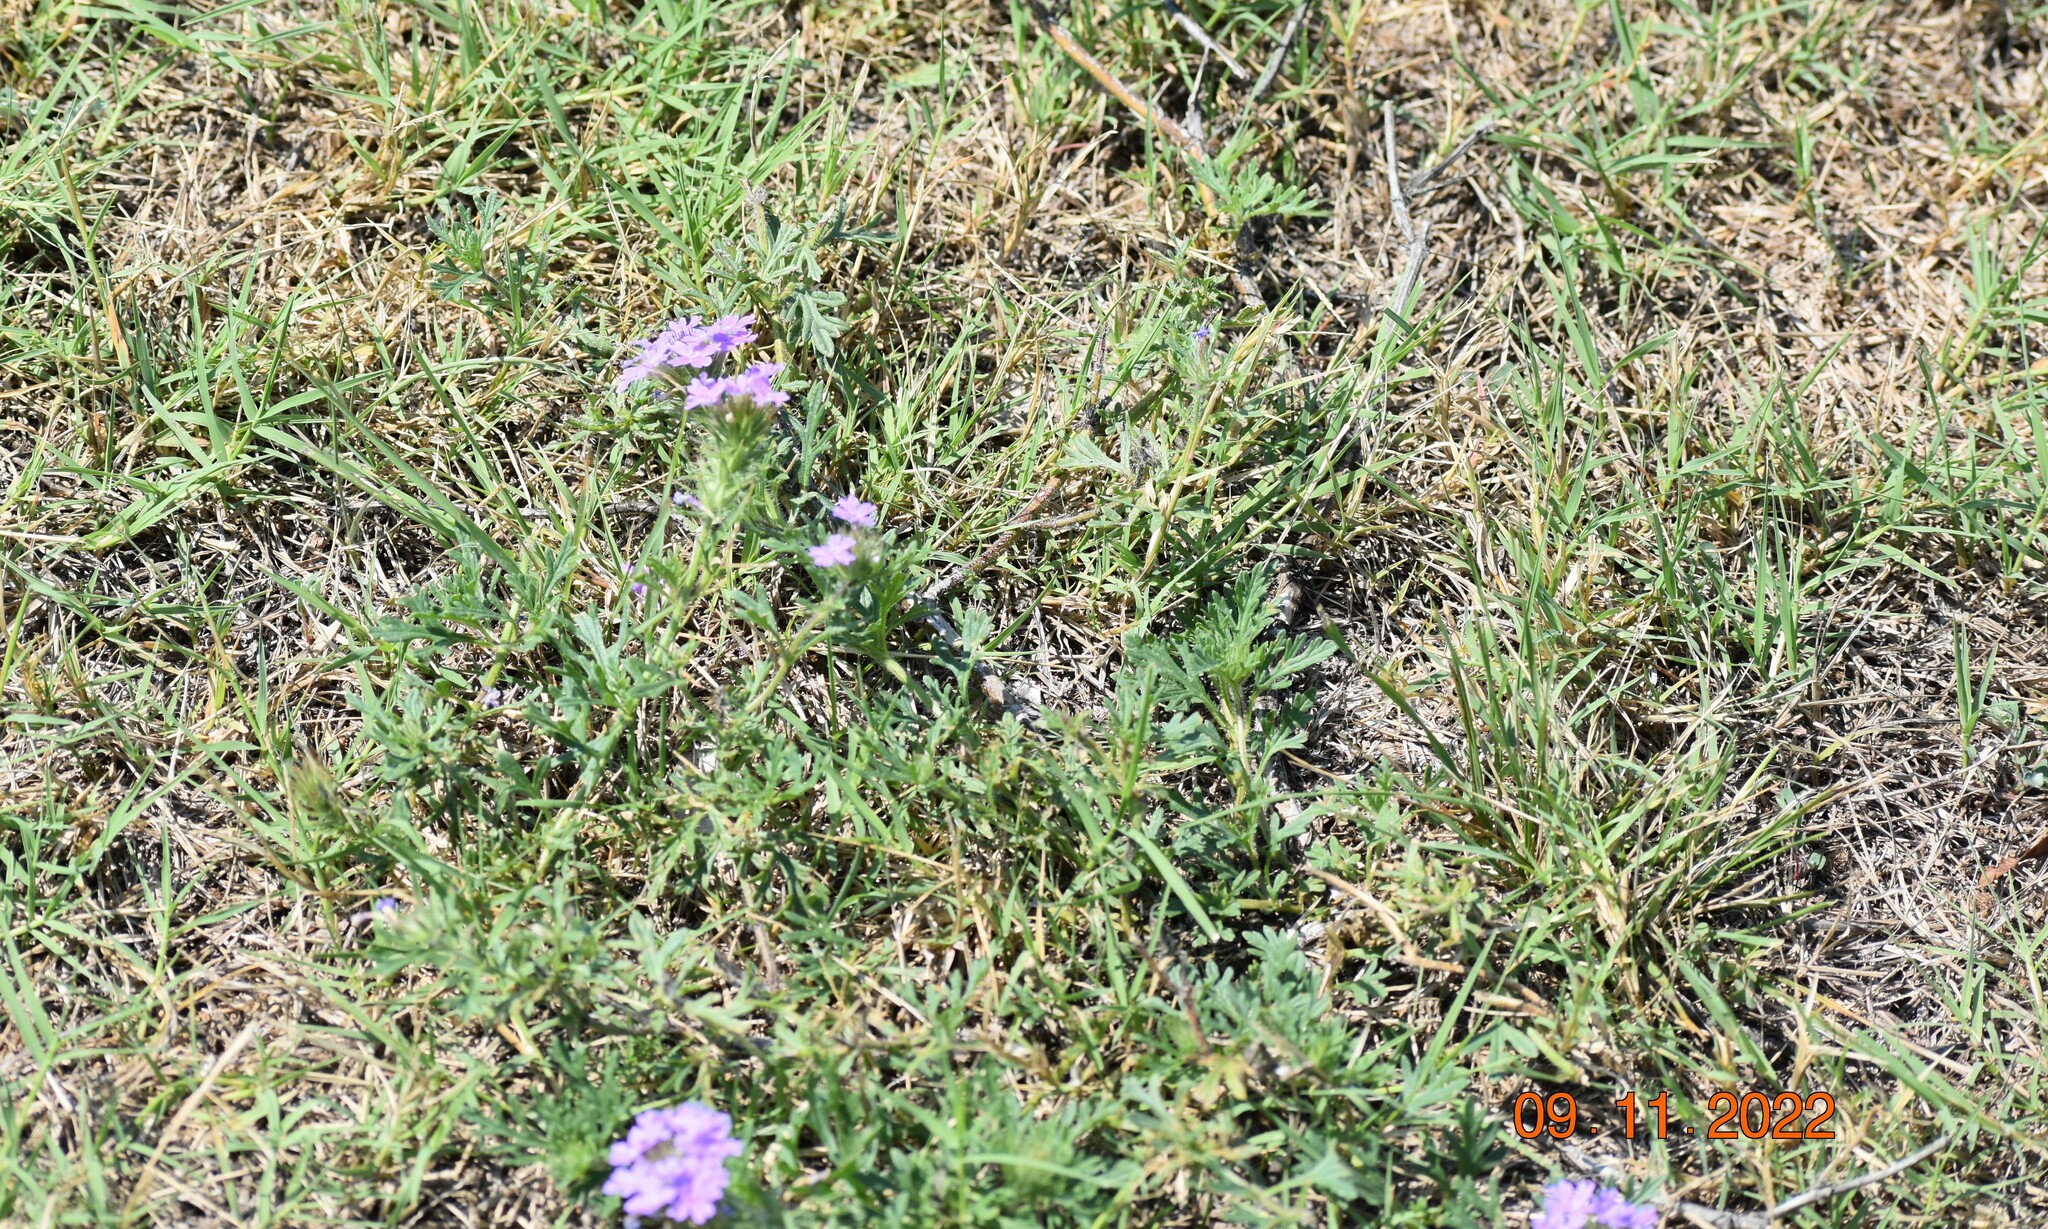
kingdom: Plantae
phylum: Tracheophyta
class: Magnoliopsida
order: Lamiales
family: Verbenaceae
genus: Verbena
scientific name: Verbena bipinnatifida
